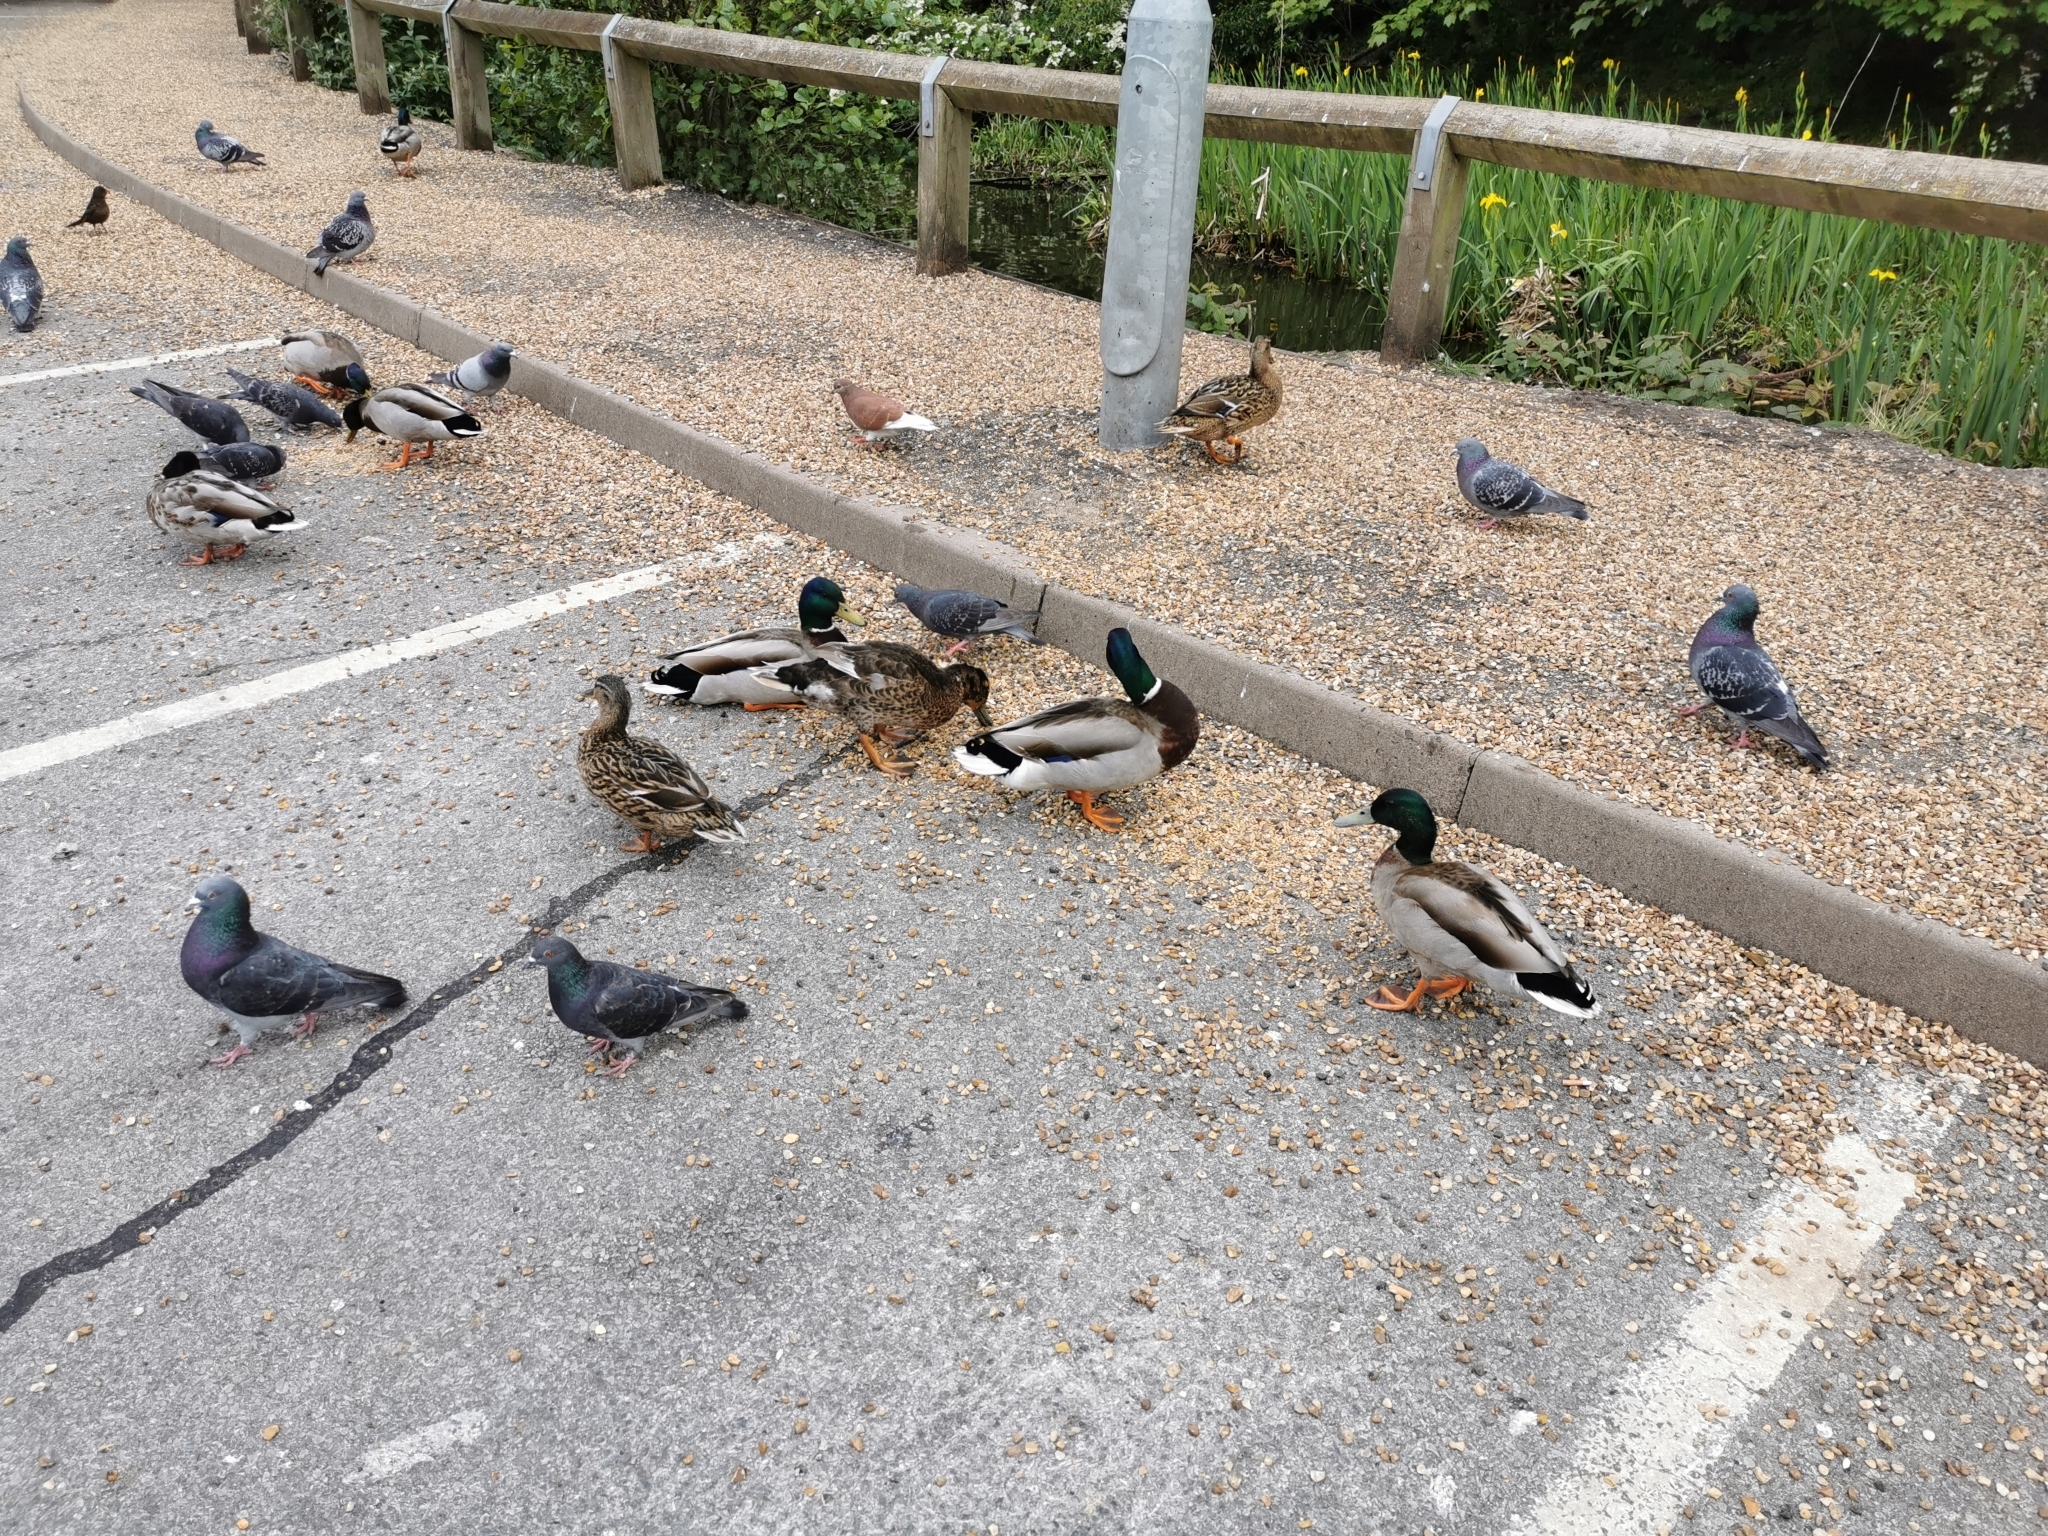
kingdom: Animalia
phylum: Chordata
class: Aves
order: Anseriformes
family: Anatidae
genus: Anas
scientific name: Anas platyrhynchos
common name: Mallard
